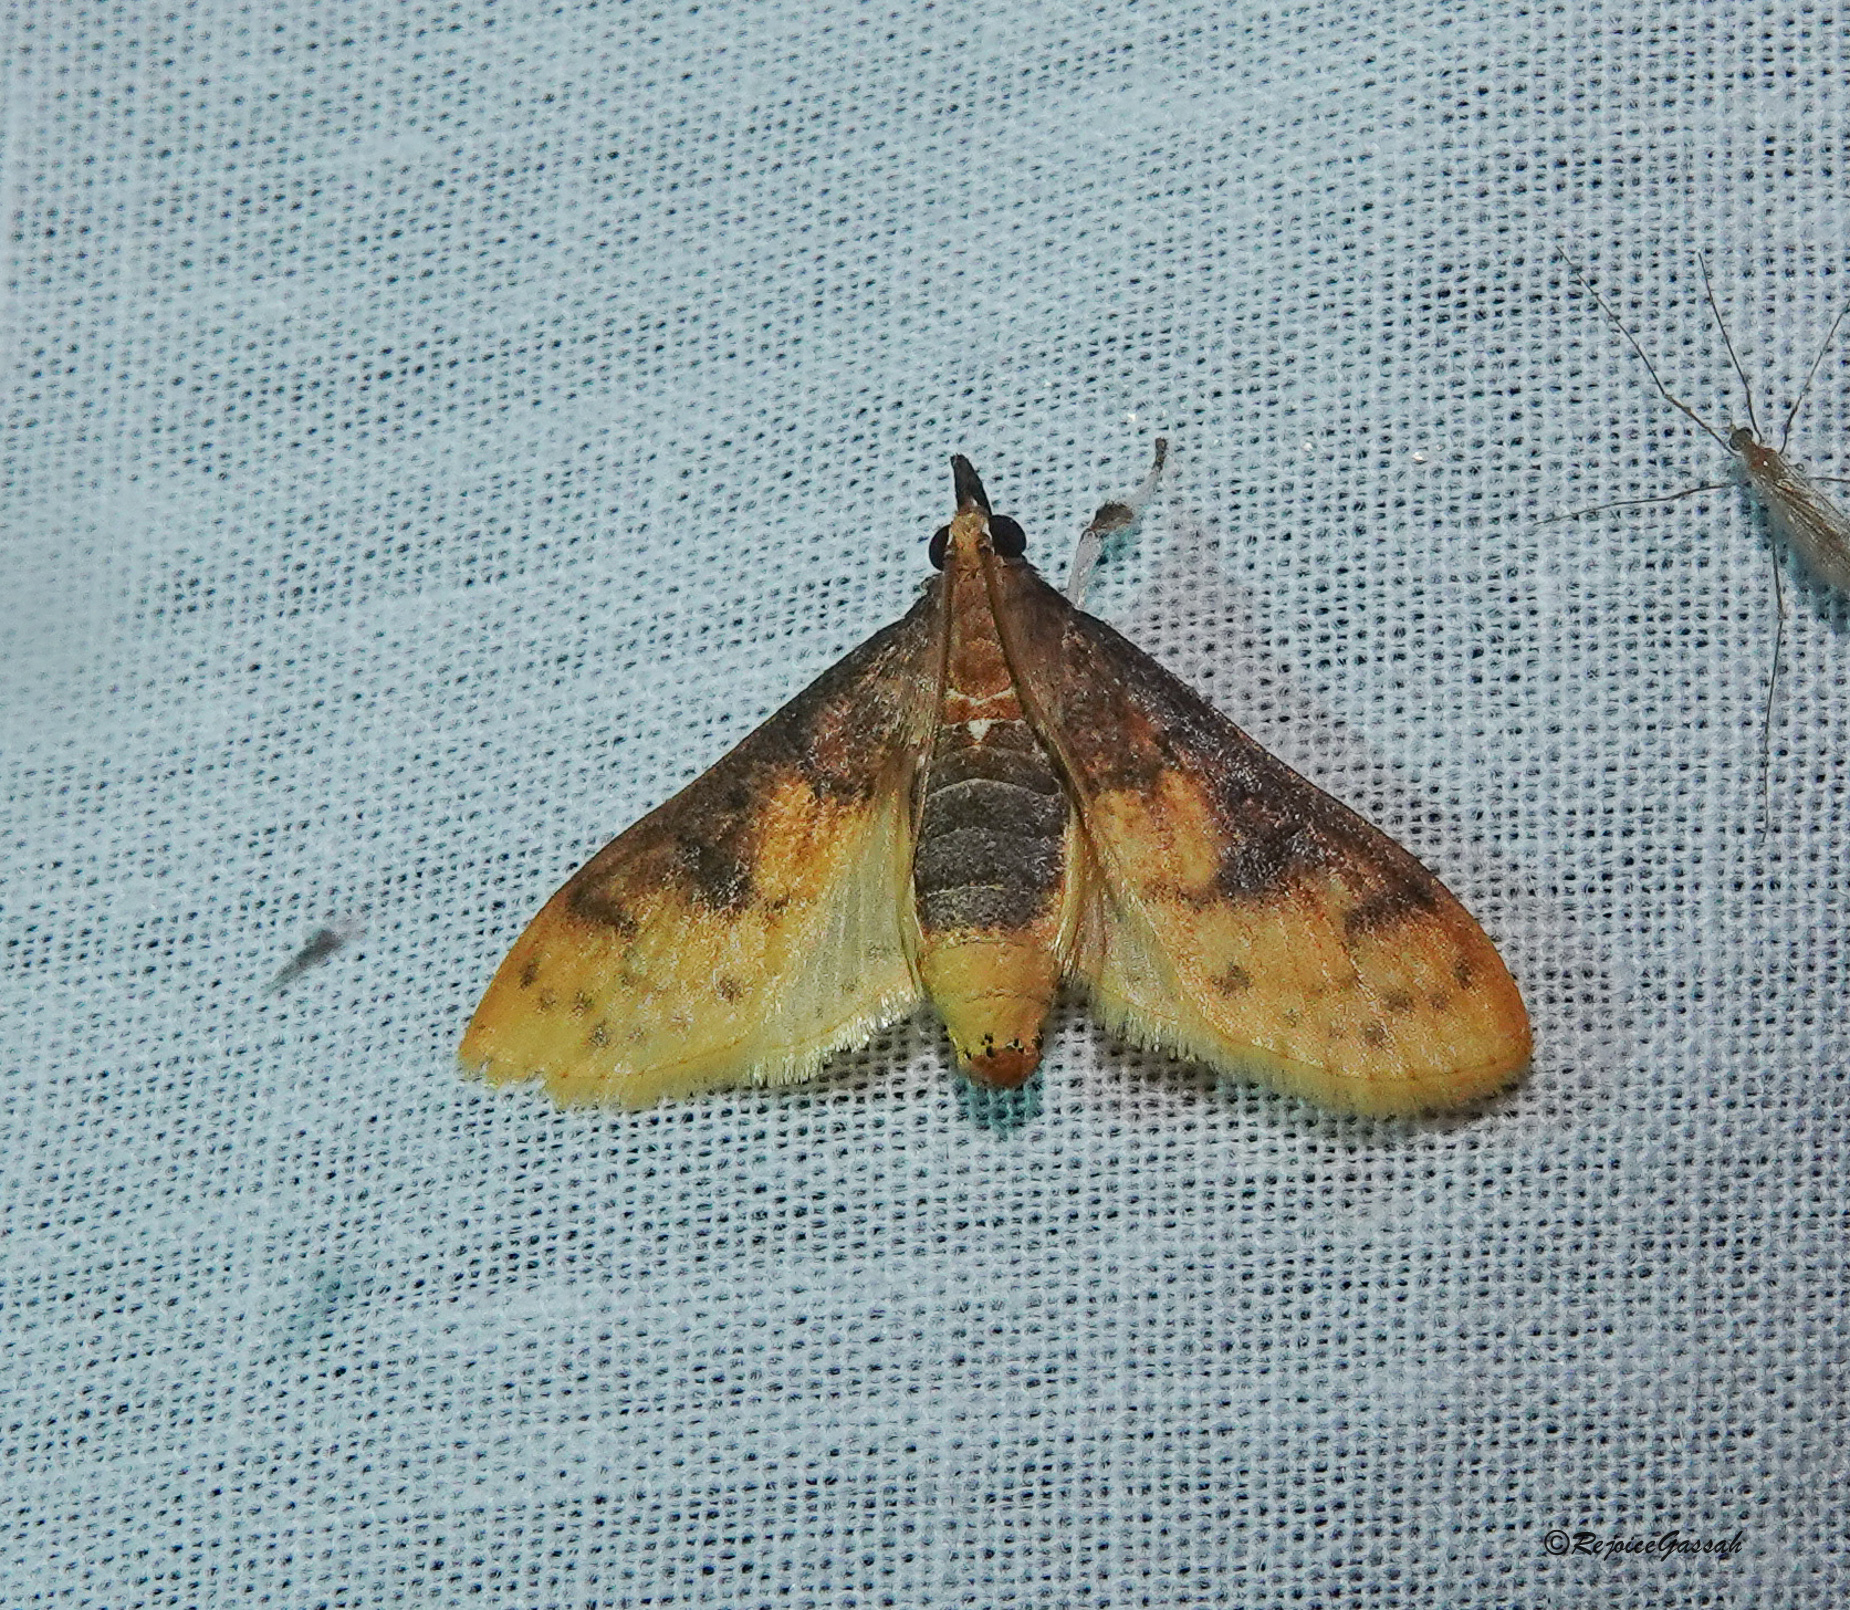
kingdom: Animalia
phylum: Arthropoda
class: Insecta
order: Lepidoptera
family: Crambidae
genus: Polygrammodes
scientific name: Polygrammodes sabelialis
